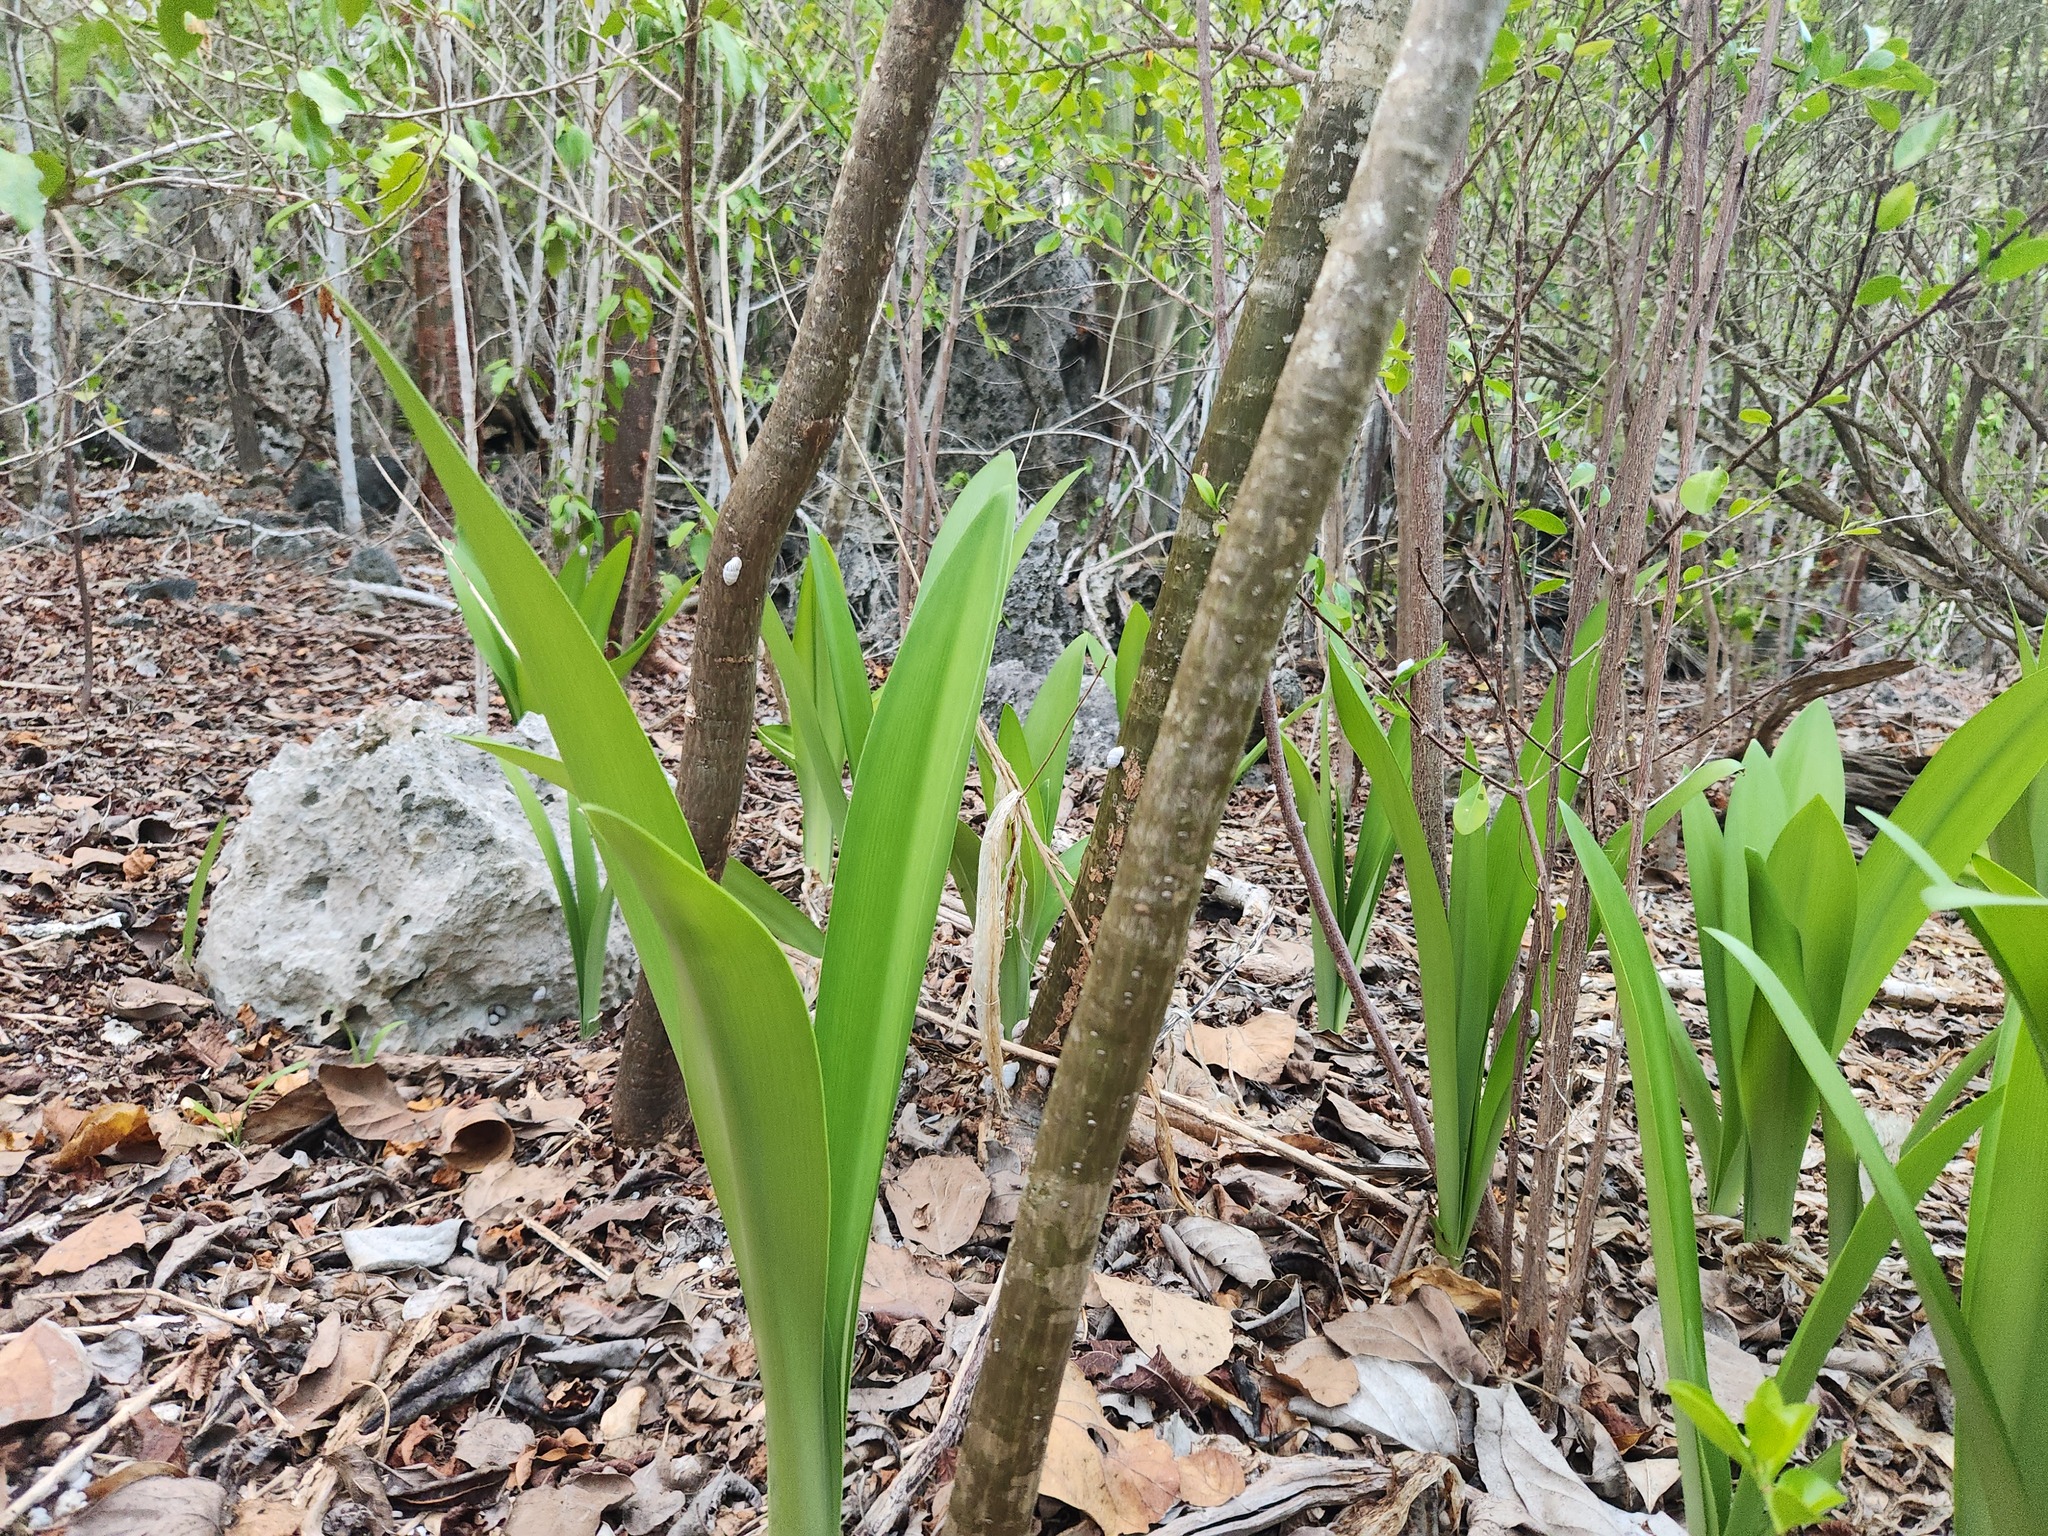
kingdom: Plantae
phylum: Tracheophyta
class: Liliopsida
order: Asparagales
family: Amaryllidaceae
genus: Hymenocallis
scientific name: Hymenocallis latifolia
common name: Cayman islands spider-lily
